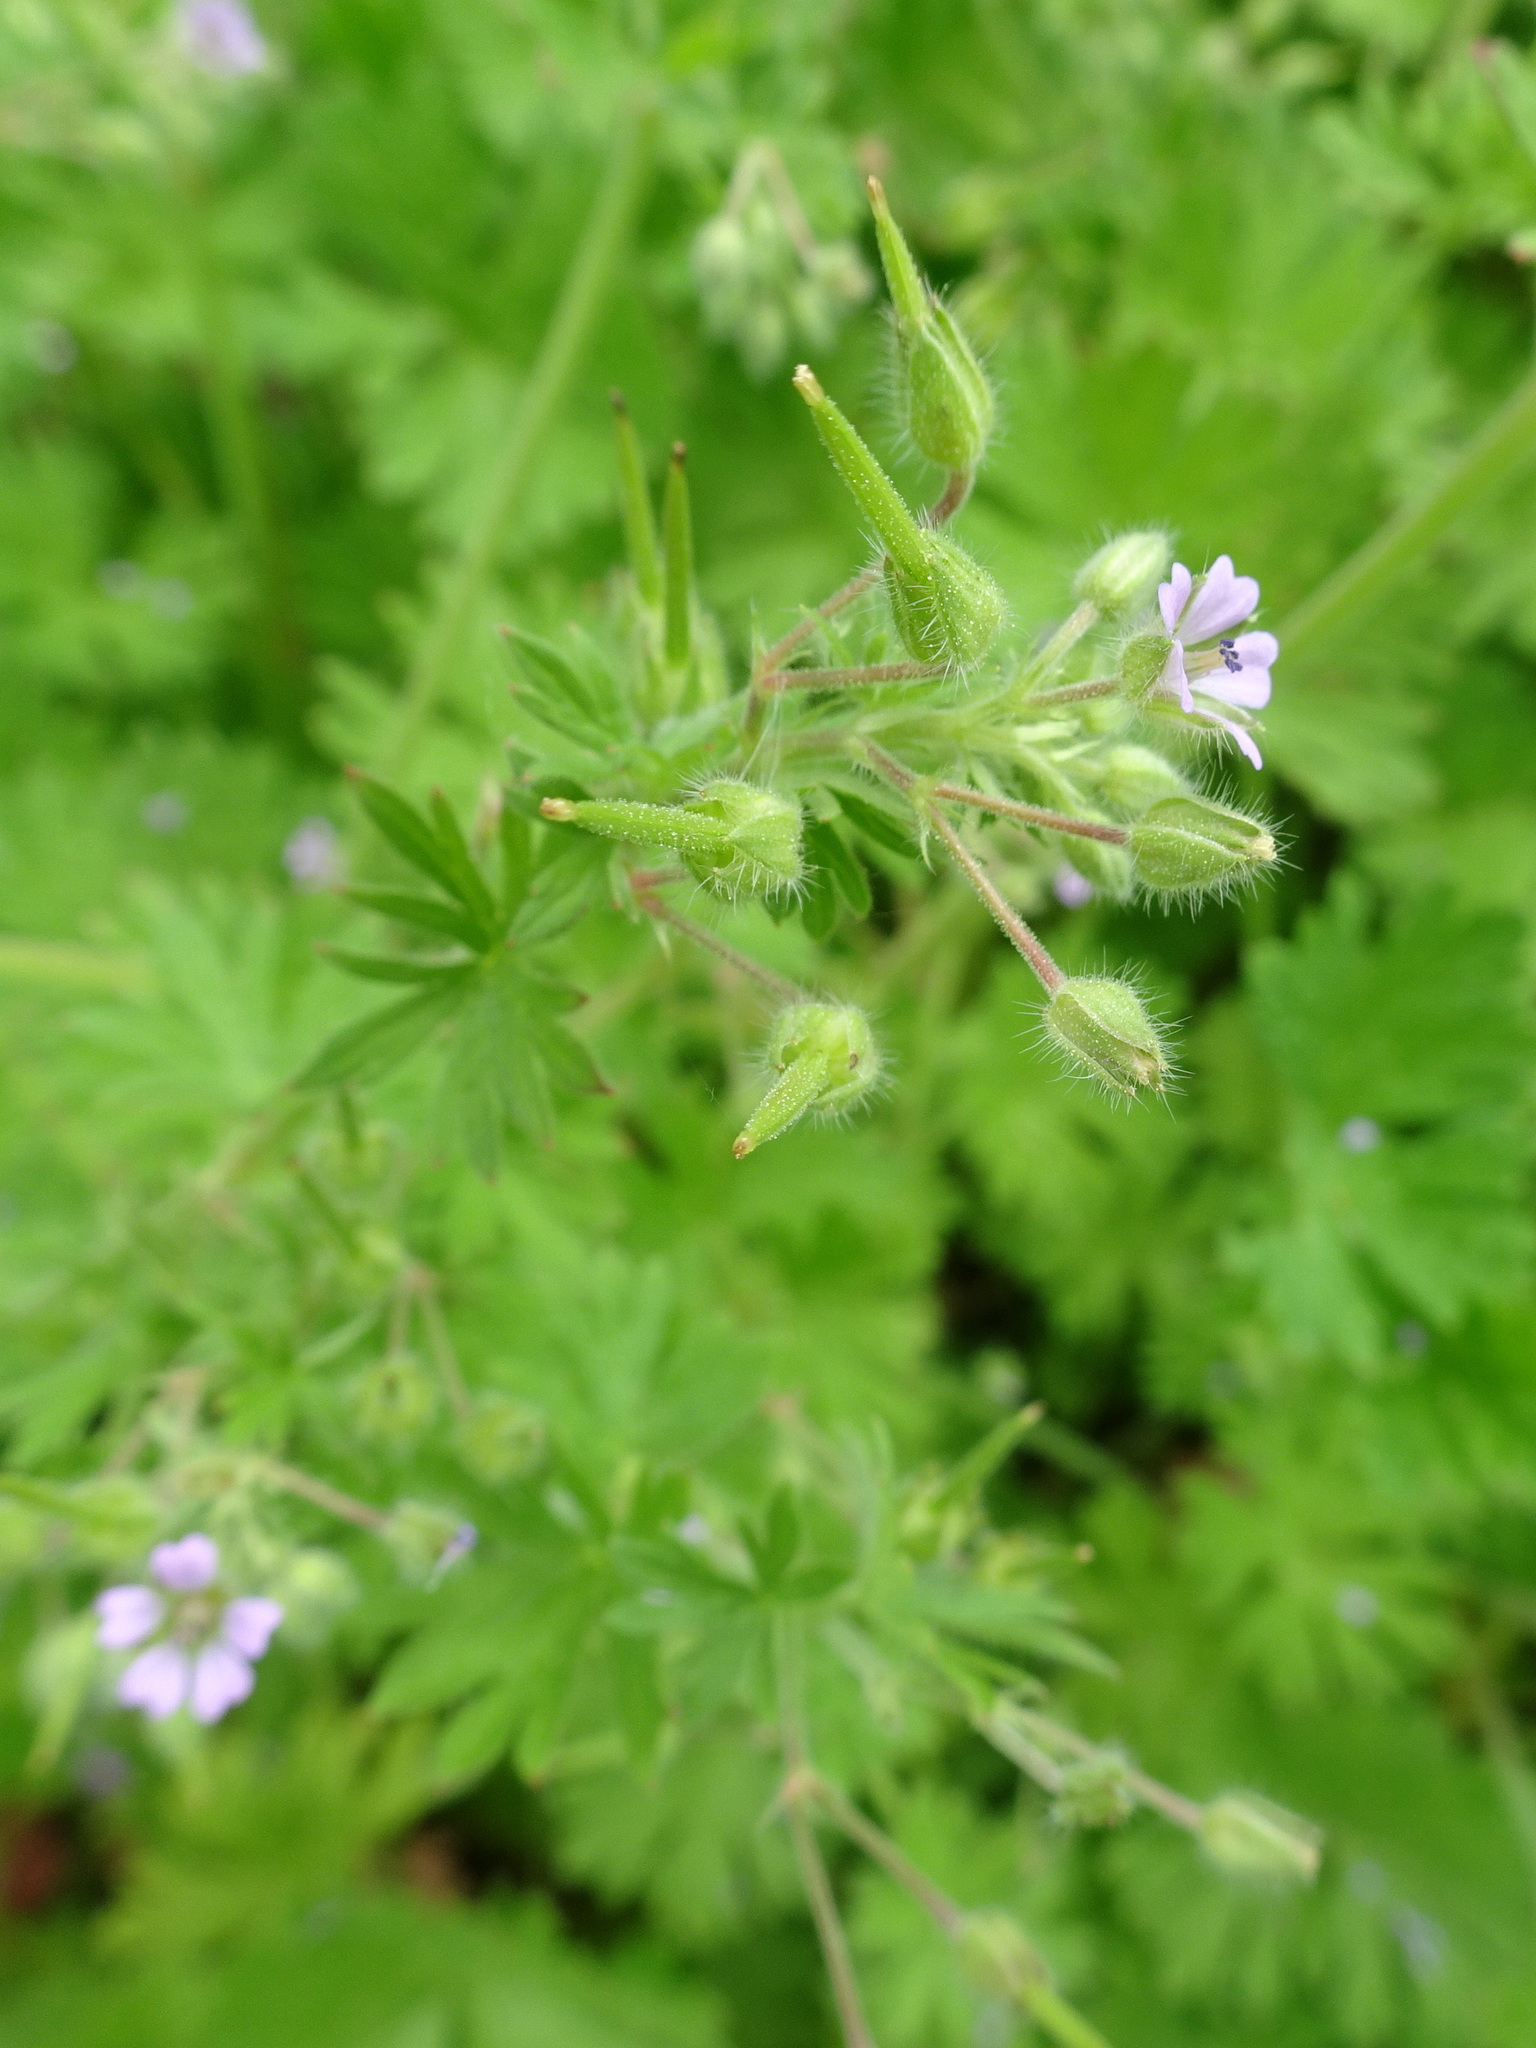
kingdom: Plantae
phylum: Tracheophyta
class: Magnoliopsida
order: Geraniales
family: Geraniaceae
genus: Geranium
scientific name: Geranium pusillum
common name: Small geranium
